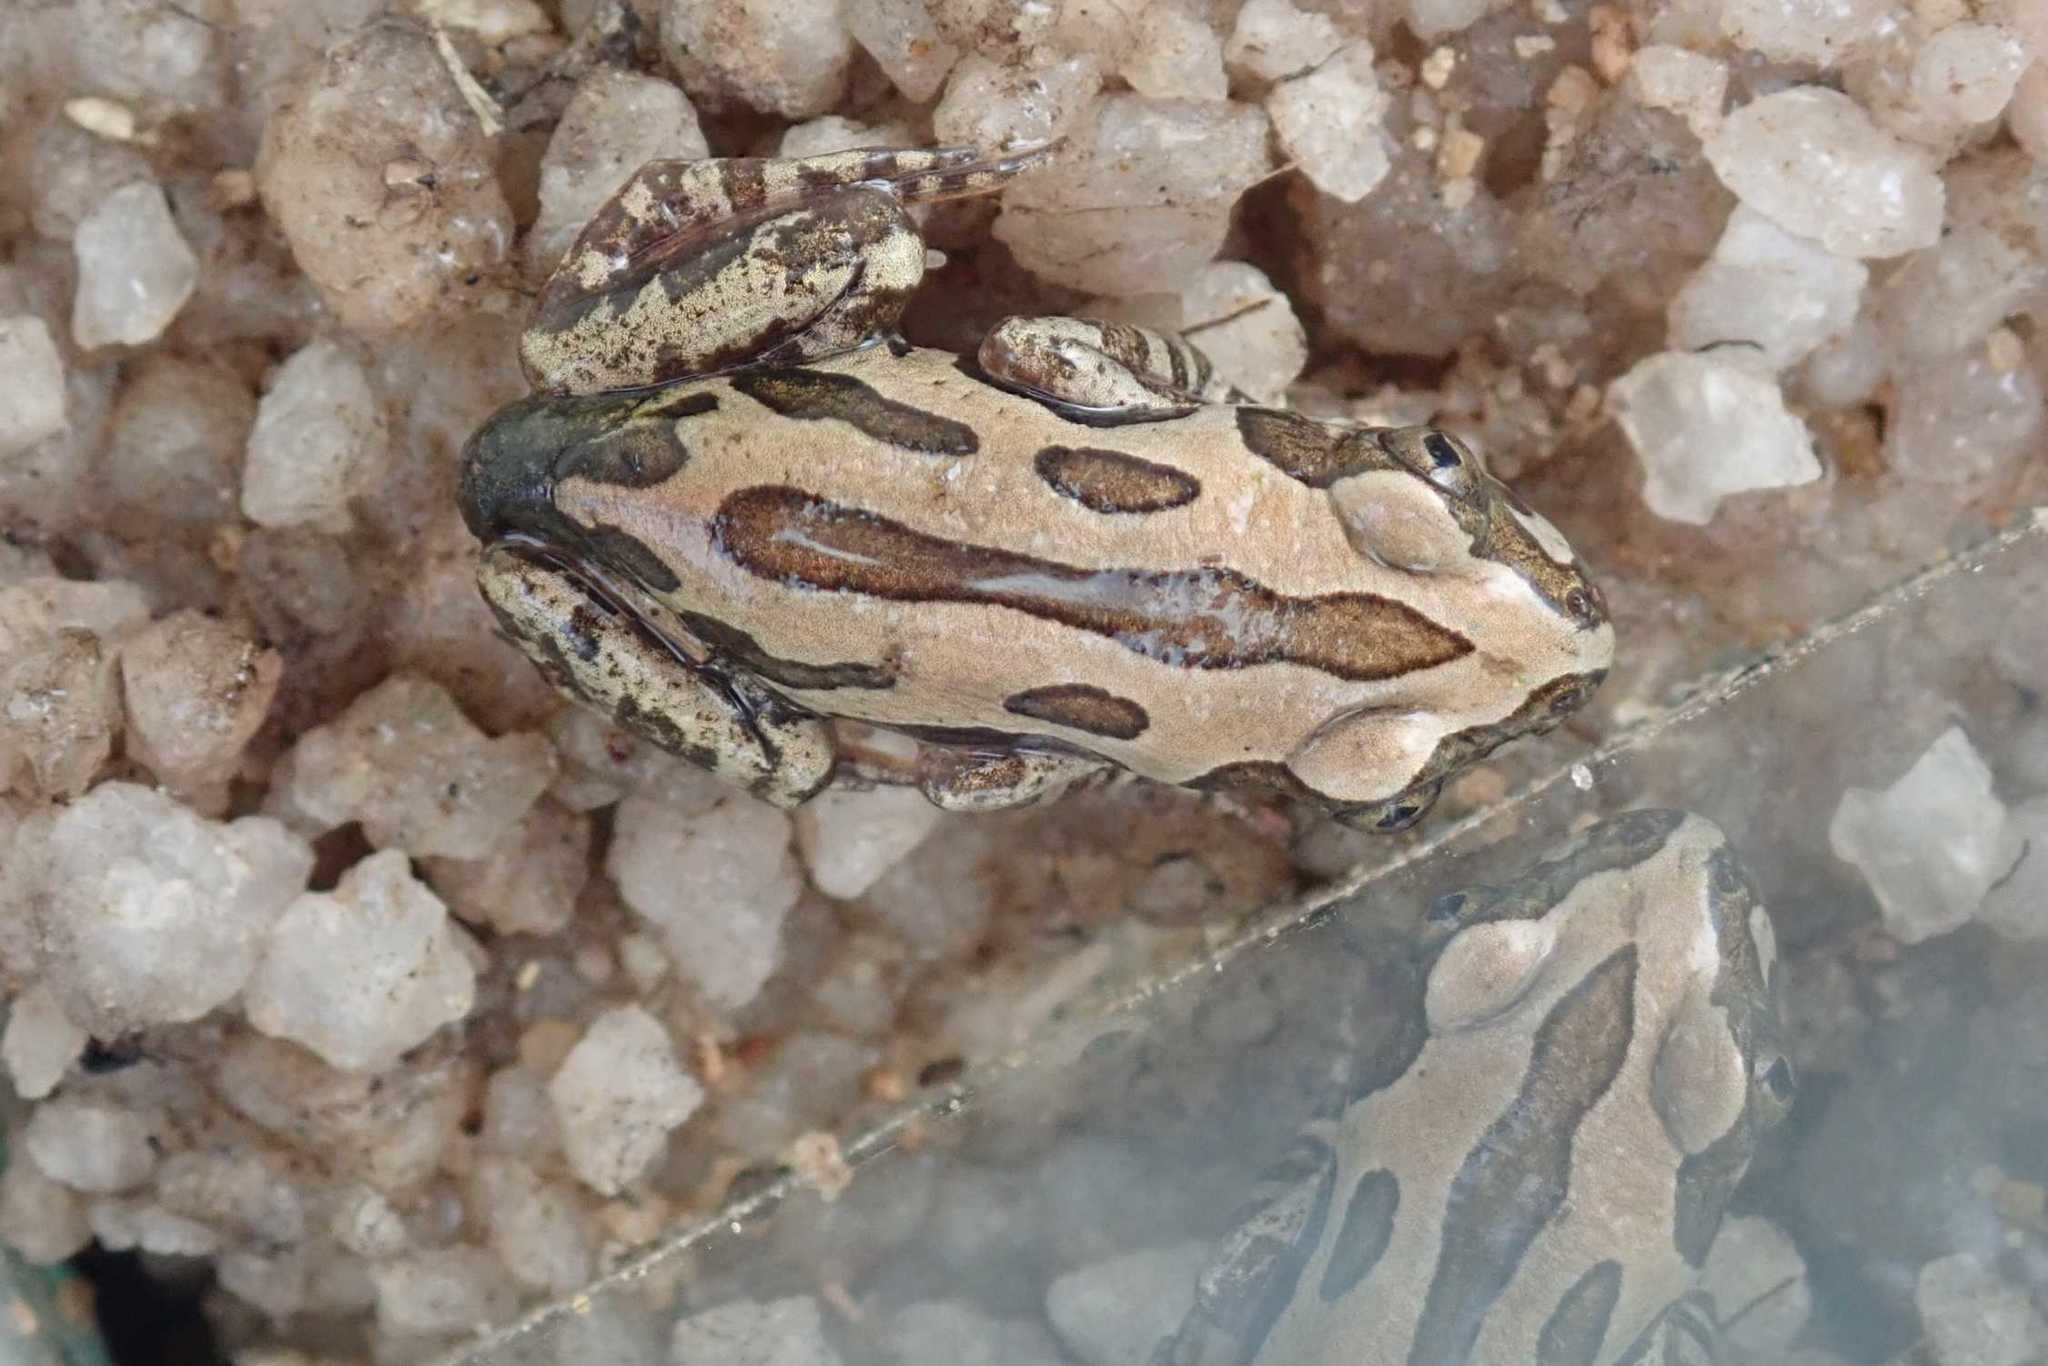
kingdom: Animalia
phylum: Chordata
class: Amphibia
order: Anura
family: Hyperoliidae
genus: Kassina
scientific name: Kassina senegalensis
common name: Senegal land frog
